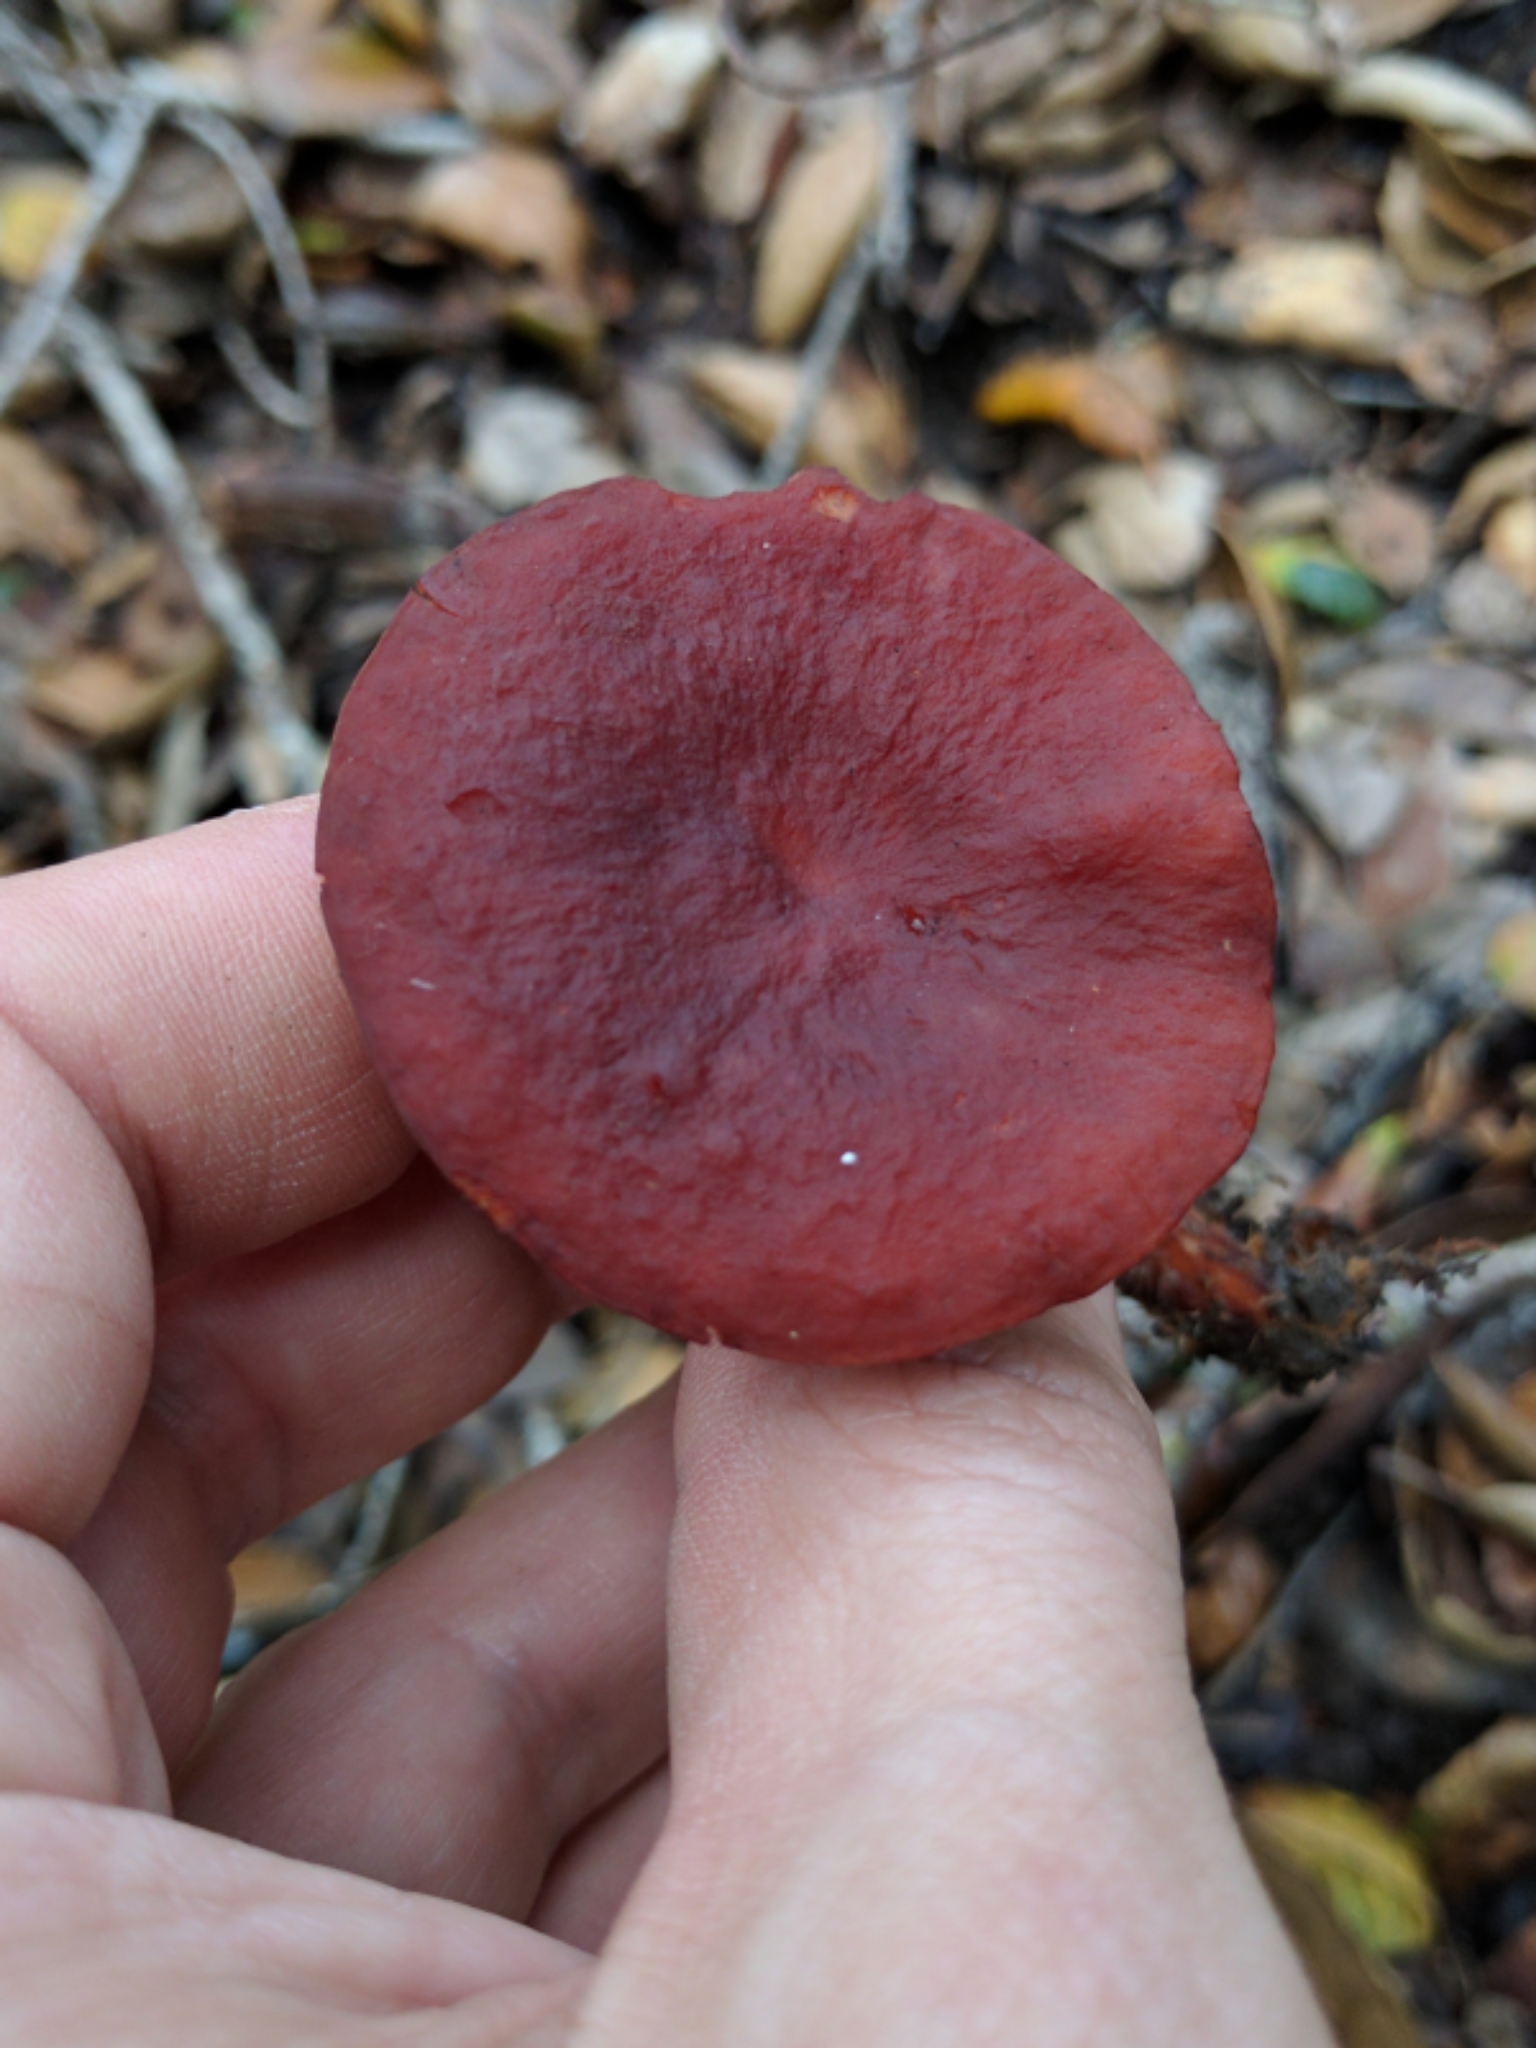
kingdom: Fungi
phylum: Basidiomycota
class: Agaricomycetes
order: Russulales
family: Russulaceae
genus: Lactarius
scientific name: Lactarius rufulus
